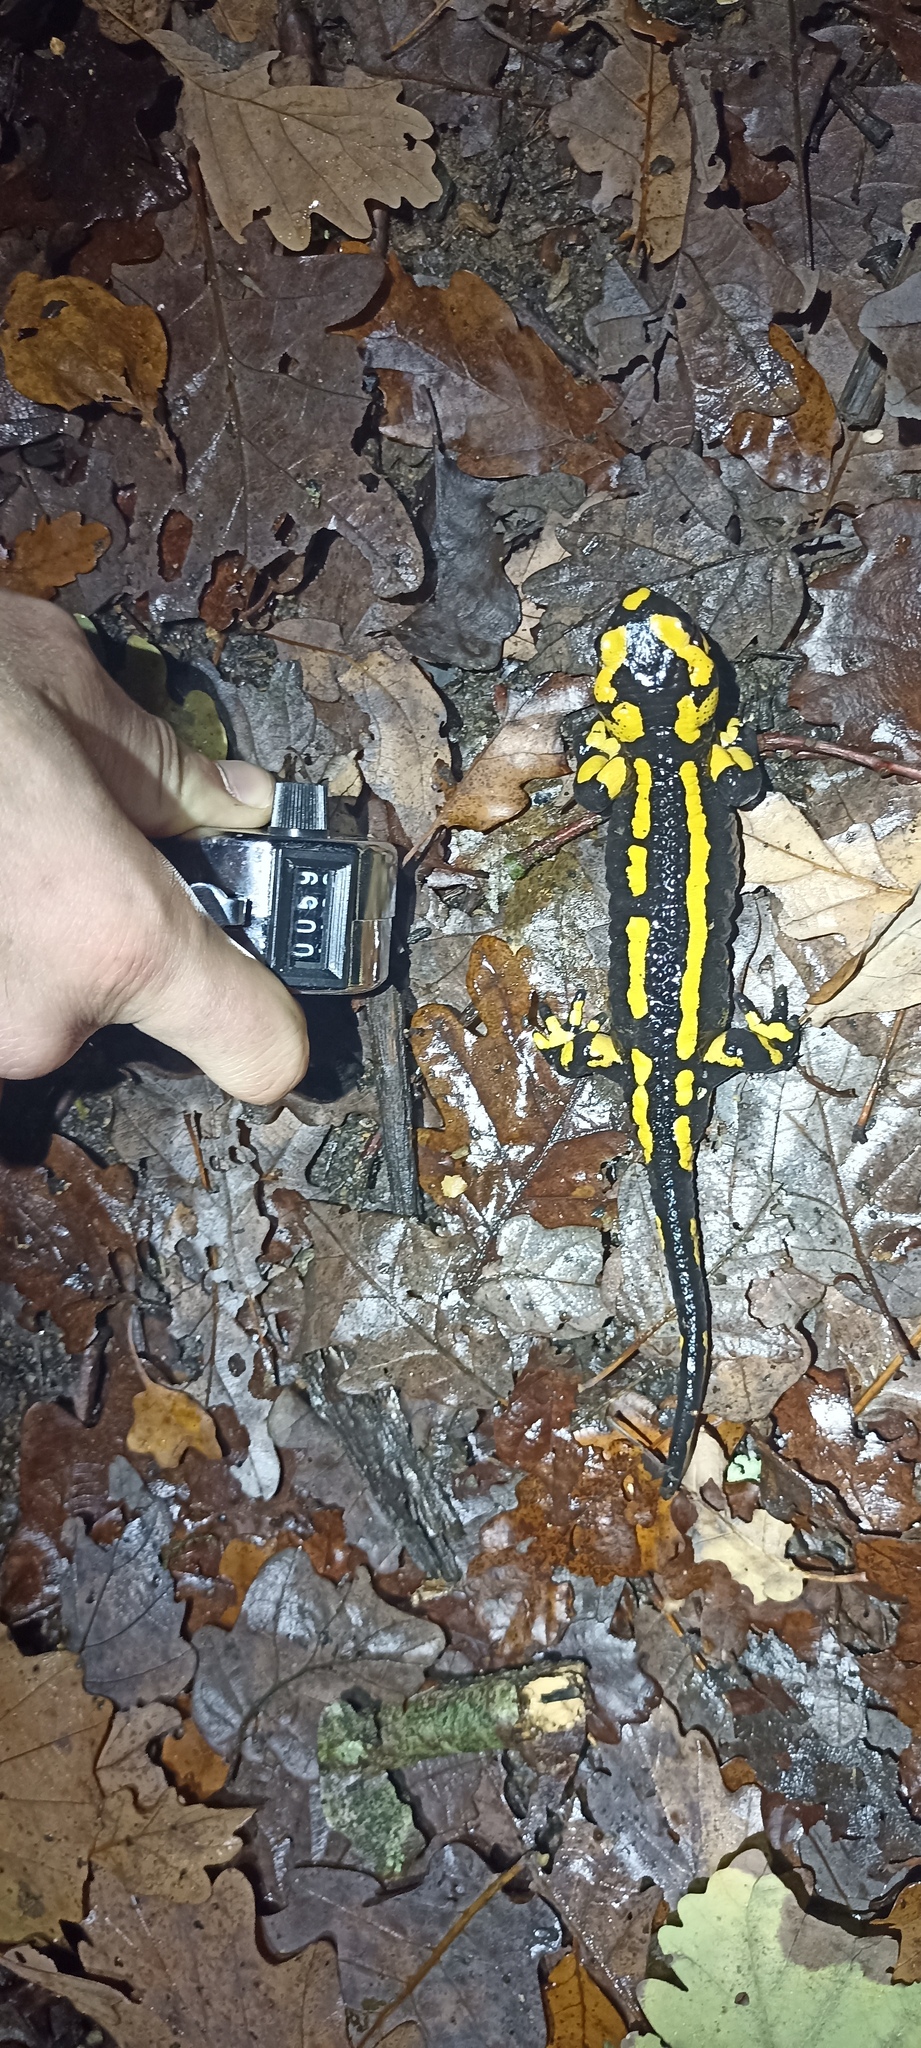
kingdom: Animalia
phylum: Chordata
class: Amphibia
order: Caudata
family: Salamandridae
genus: Salamandra
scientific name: Salamandra salamandra
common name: Fire salamander
